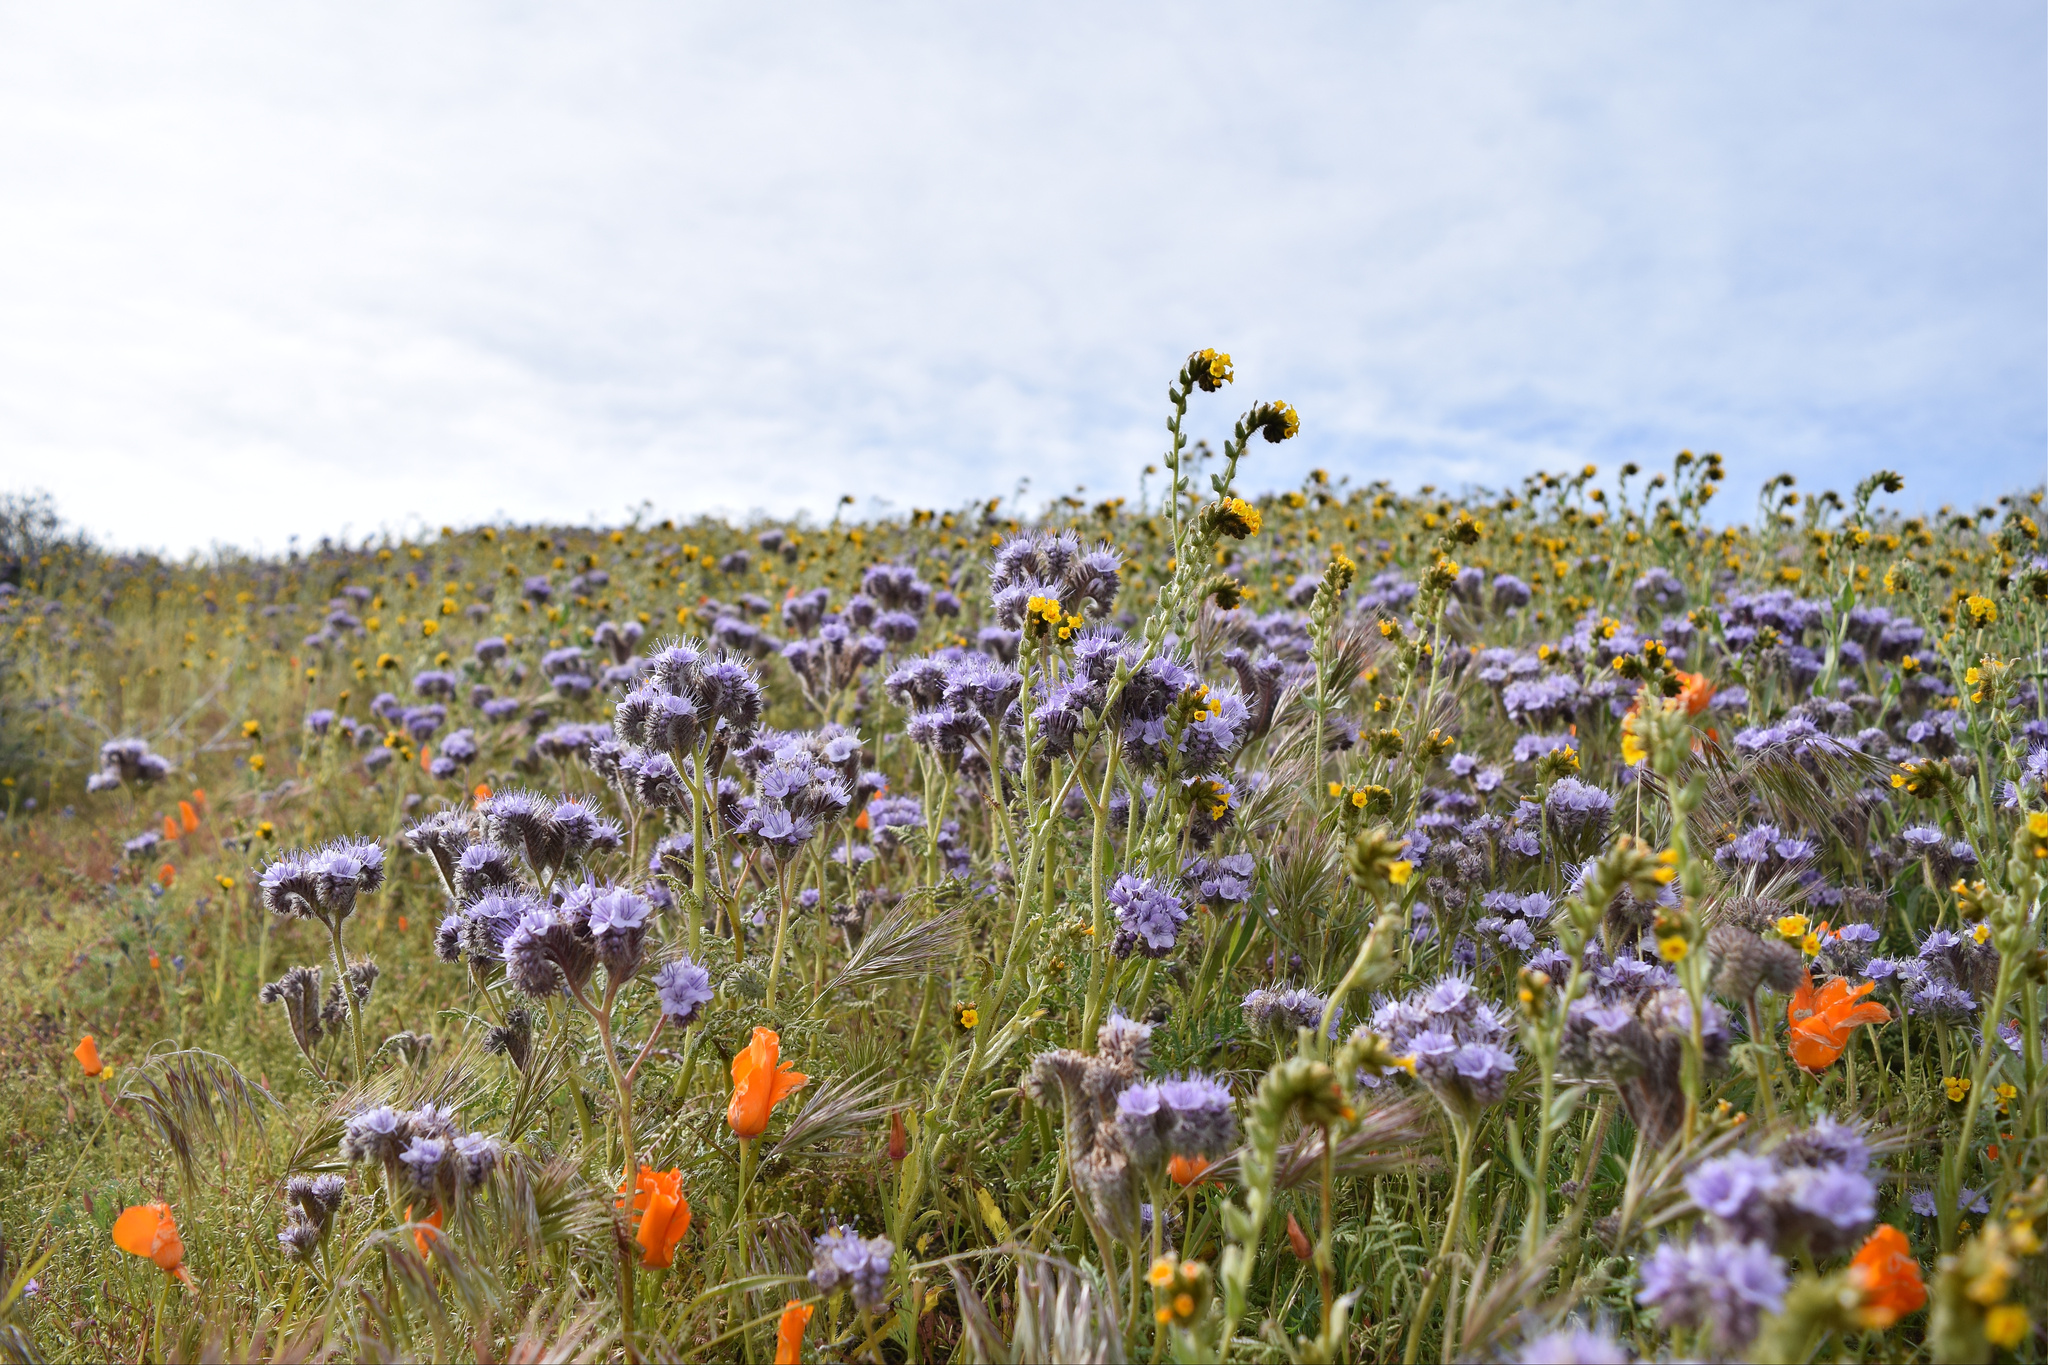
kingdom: Plantae
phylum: Tracheophyta
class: Magnoliopsida
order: Boraginales
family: Hydrophyllaceae
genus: Phacelia
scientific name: Phacelia tanacetifolia
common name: Phacelia
